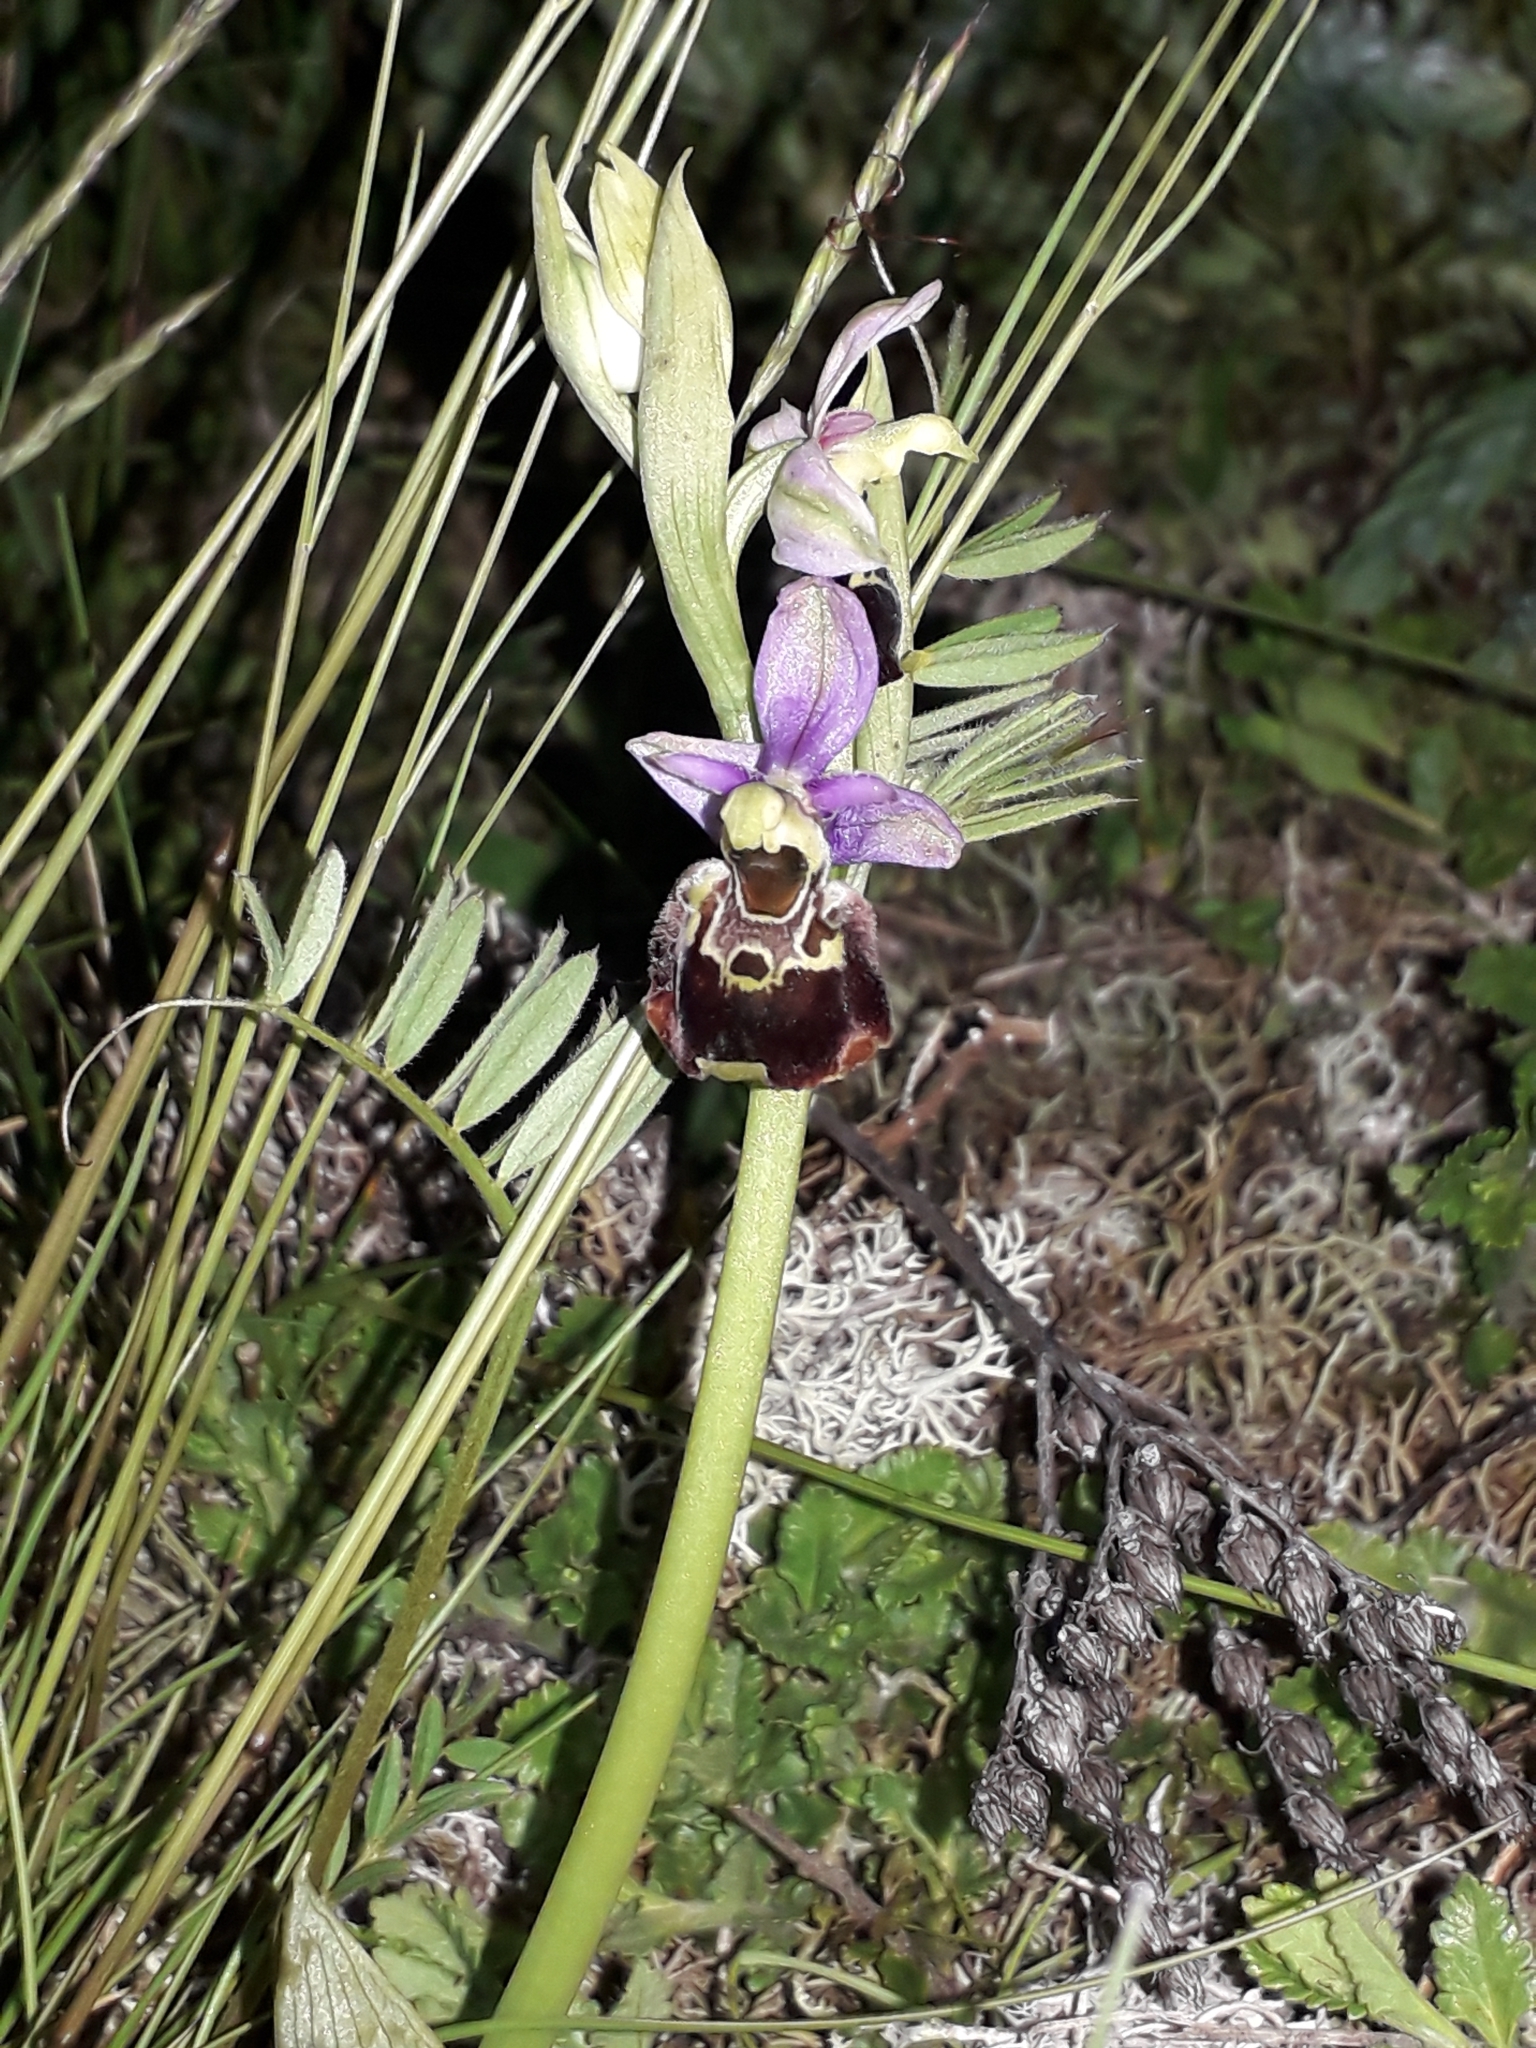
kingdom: Plantae
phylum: Tracheophyta
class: Liliopsida
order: Asparagales
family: Orchidaceae
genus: Ophrys
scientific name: Ophrys holosericea
